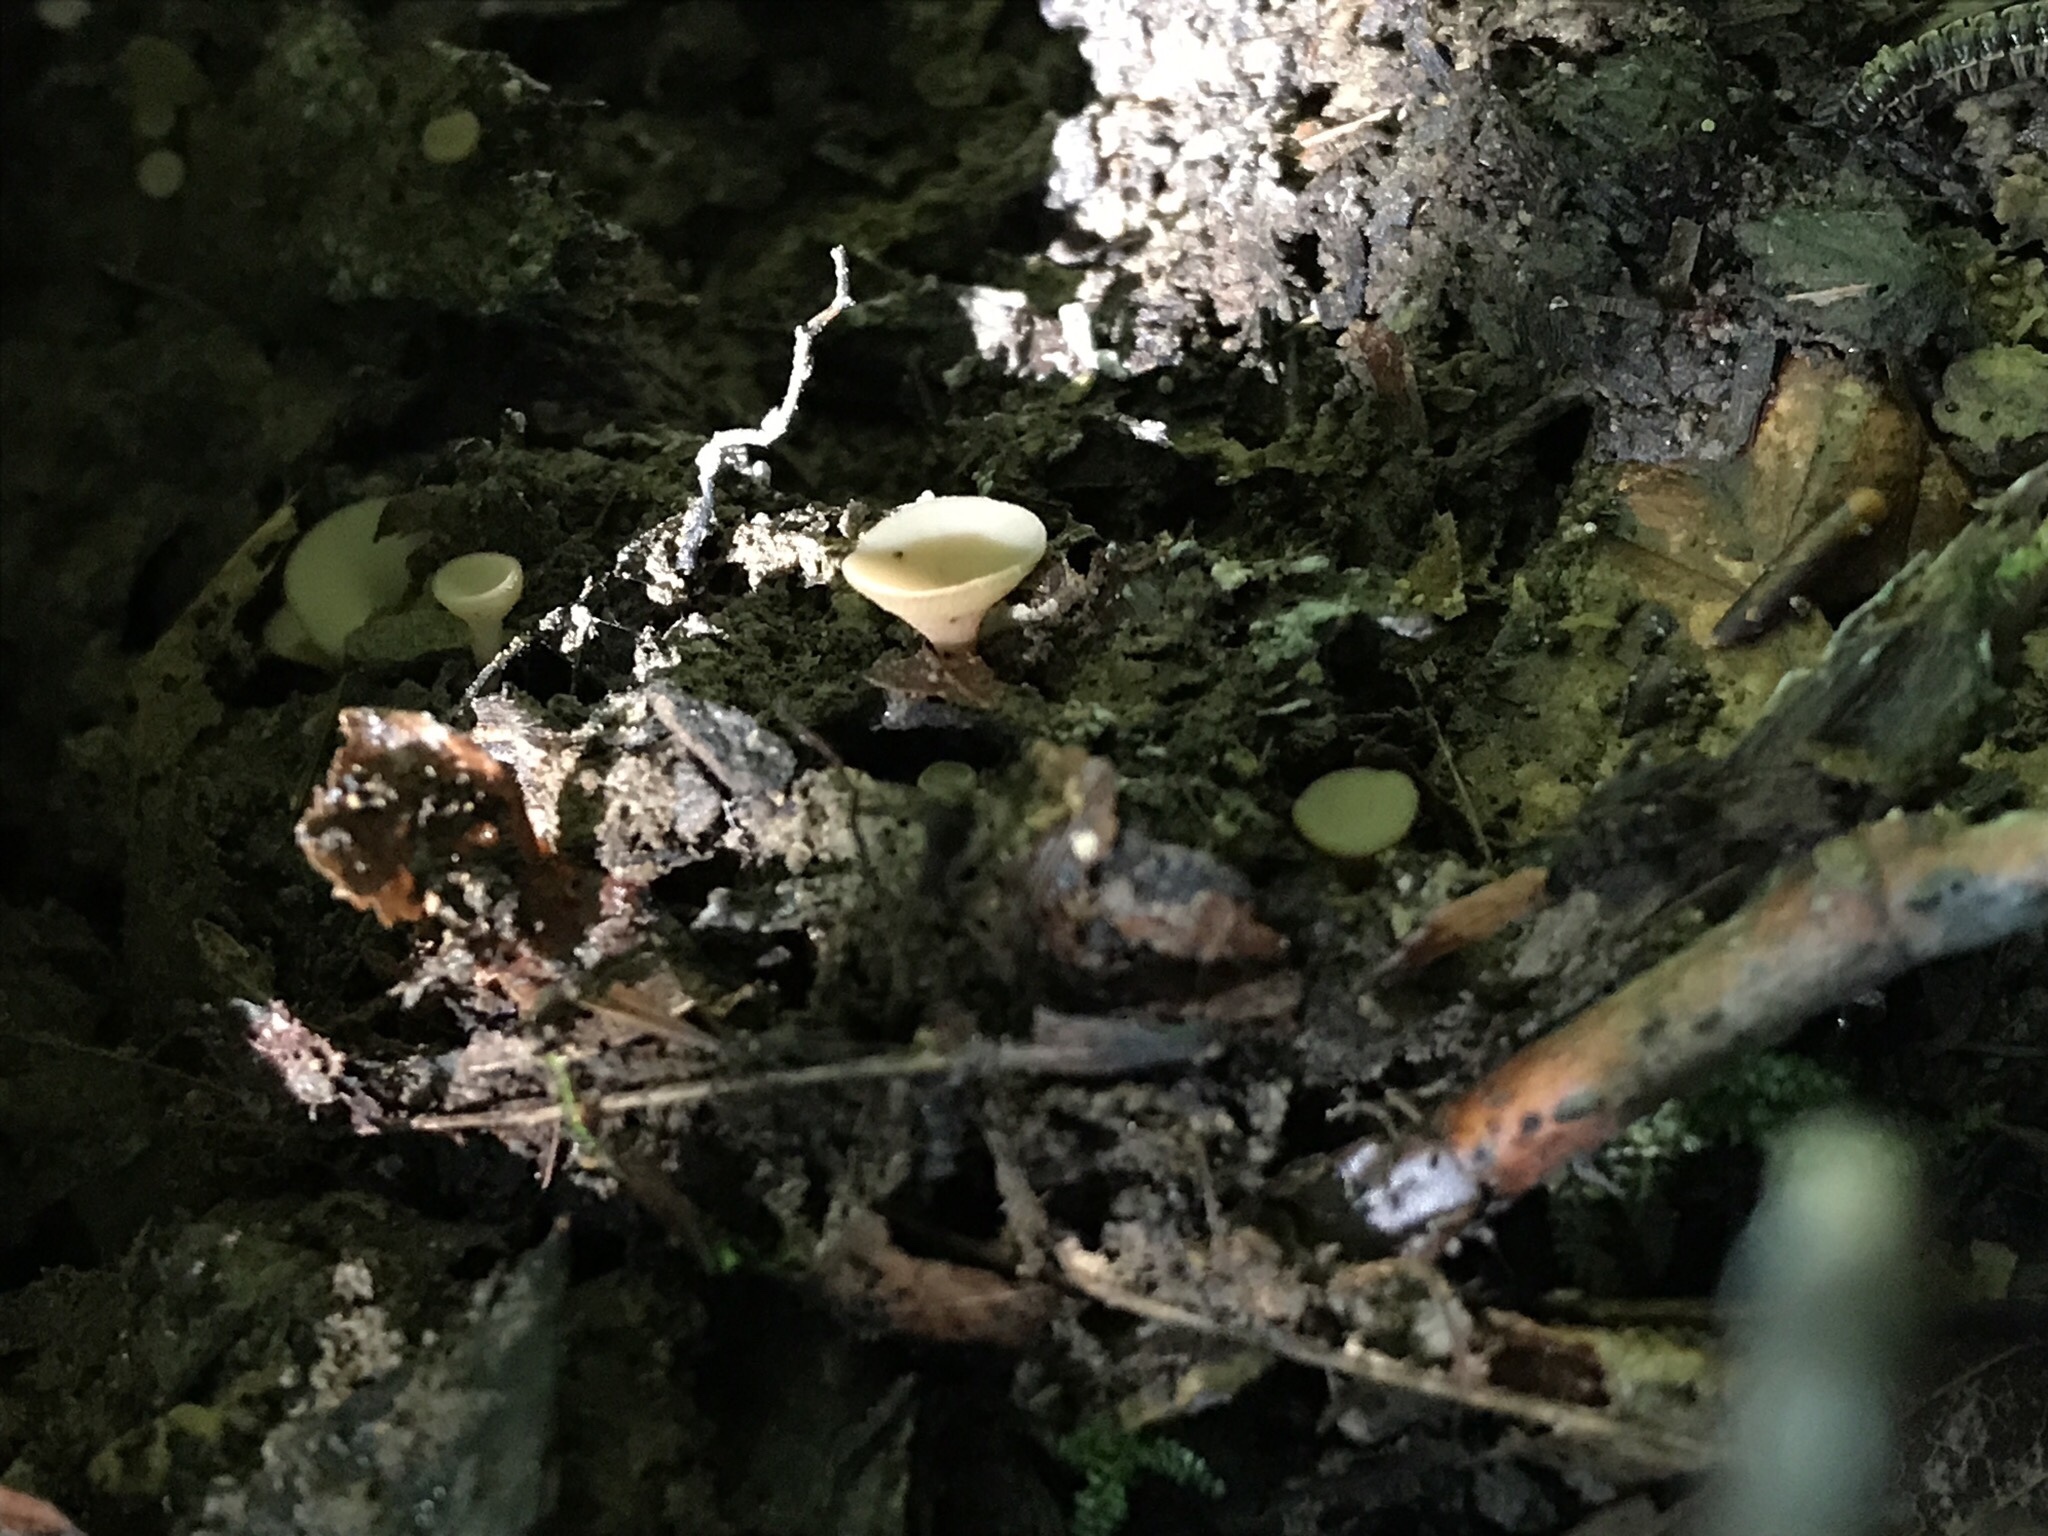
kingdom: Fungi
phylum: Ascomycota
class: Leotiomycetes
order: Helotiales
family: Helotiaceae
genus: Tatraea
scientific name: Tatraea macrospora
